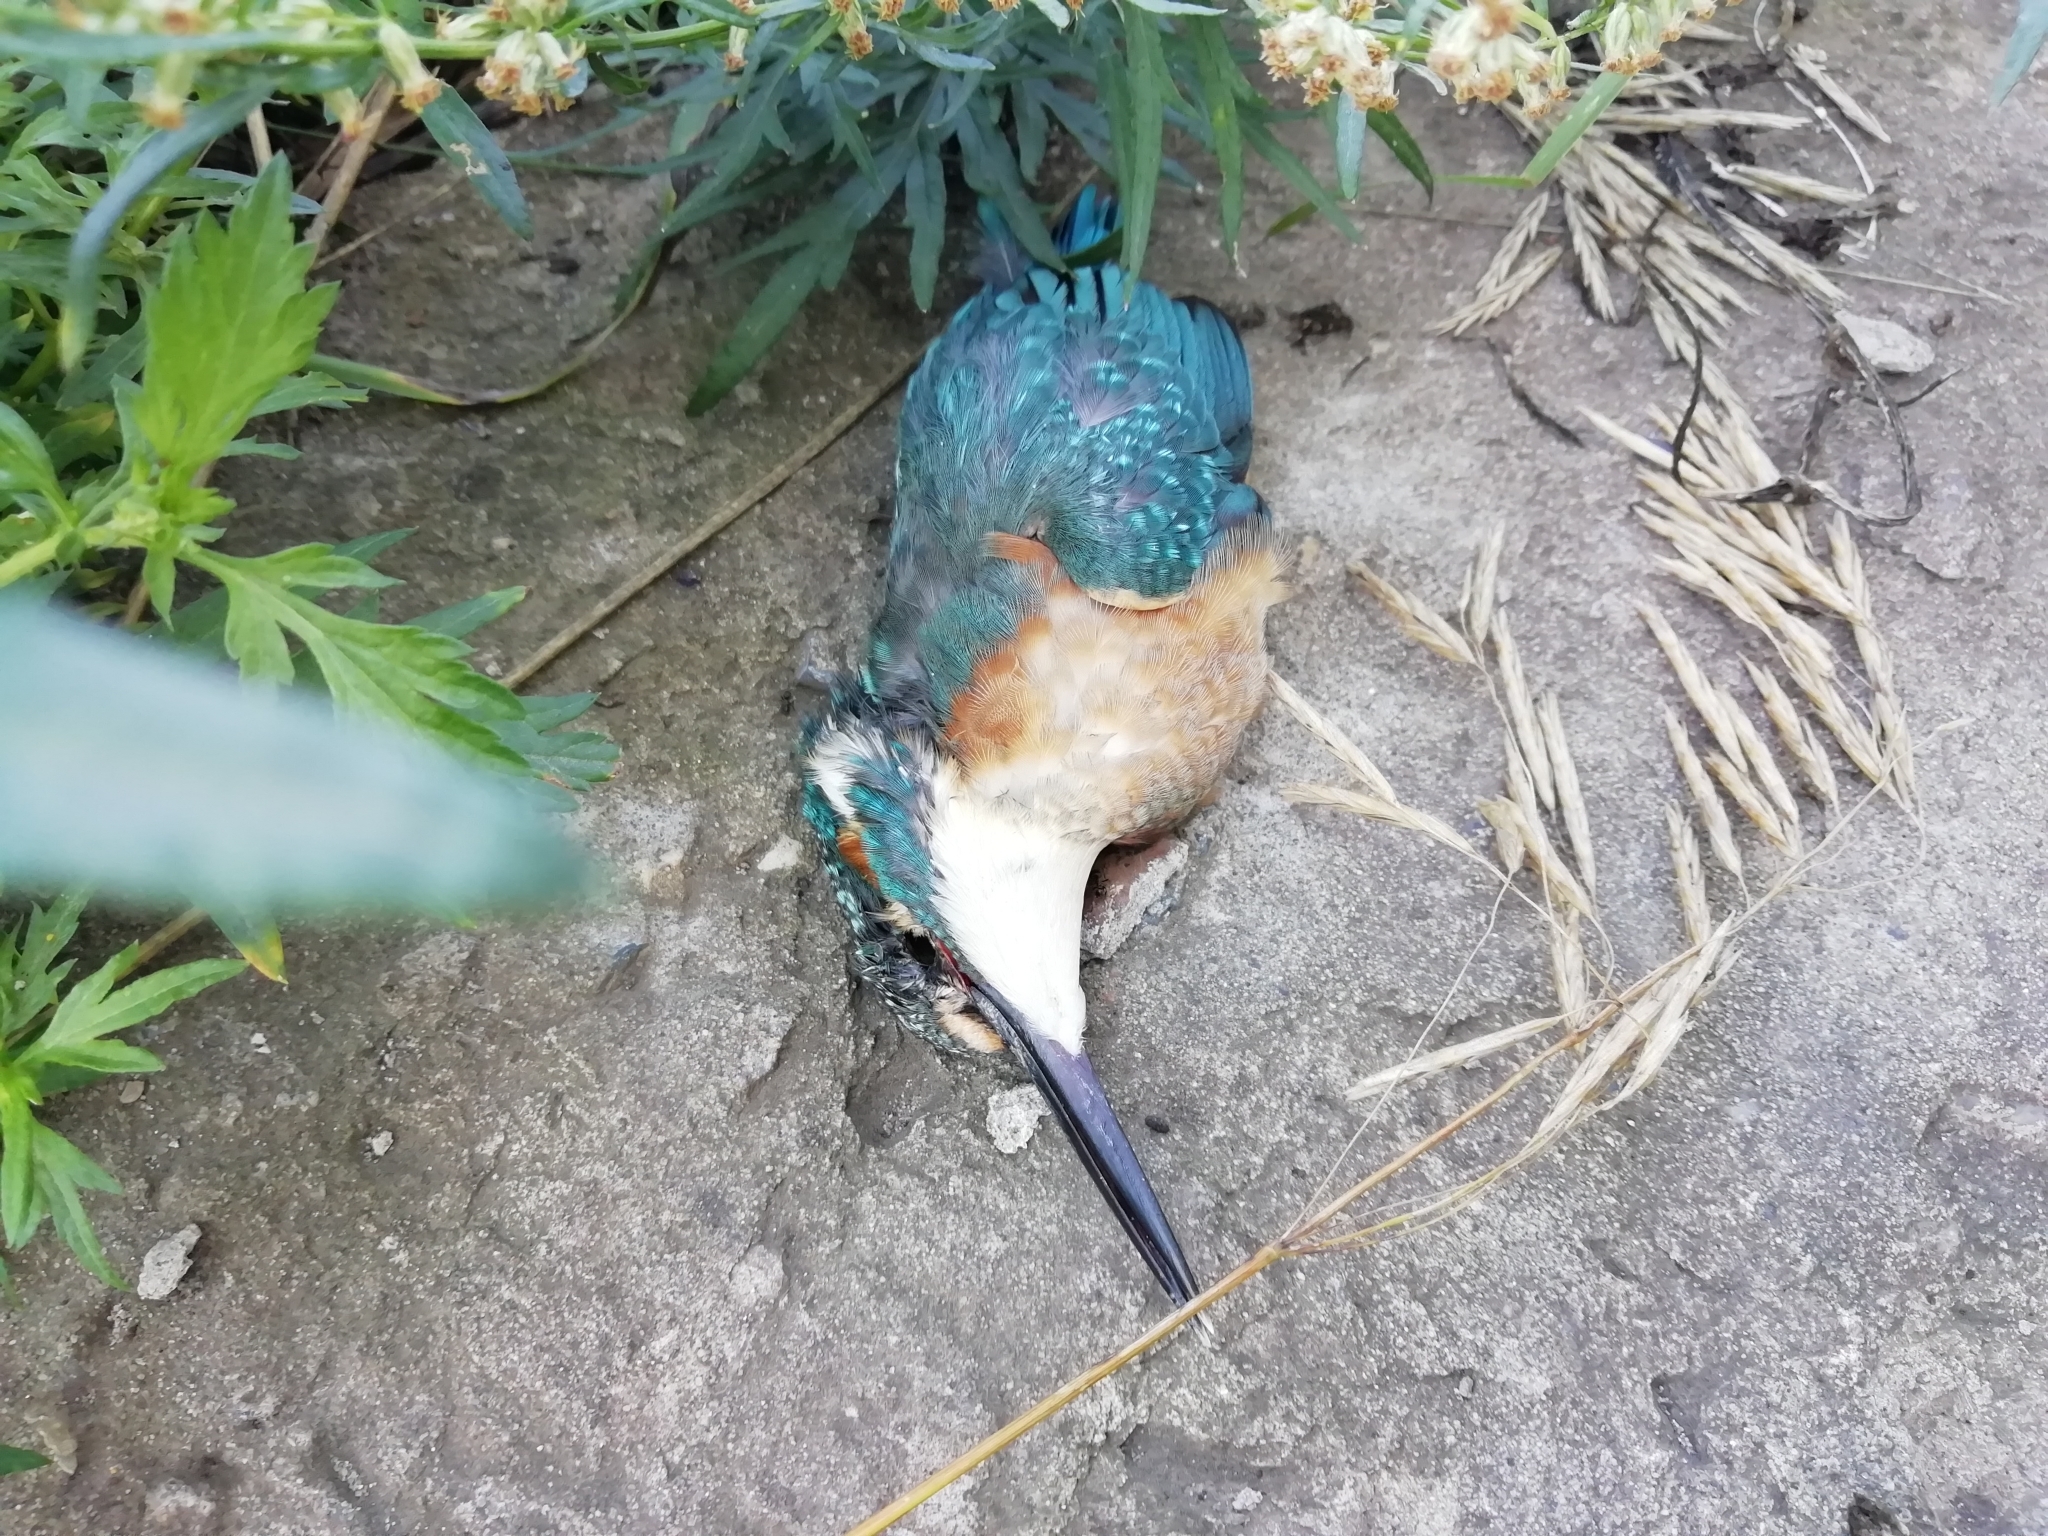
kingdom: Animalia
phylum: Chordata
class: Aves
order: Coraciiformes
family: Alcedinidae
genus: Alcedo
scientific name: Alcedo atthis
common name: Common kingfisher
